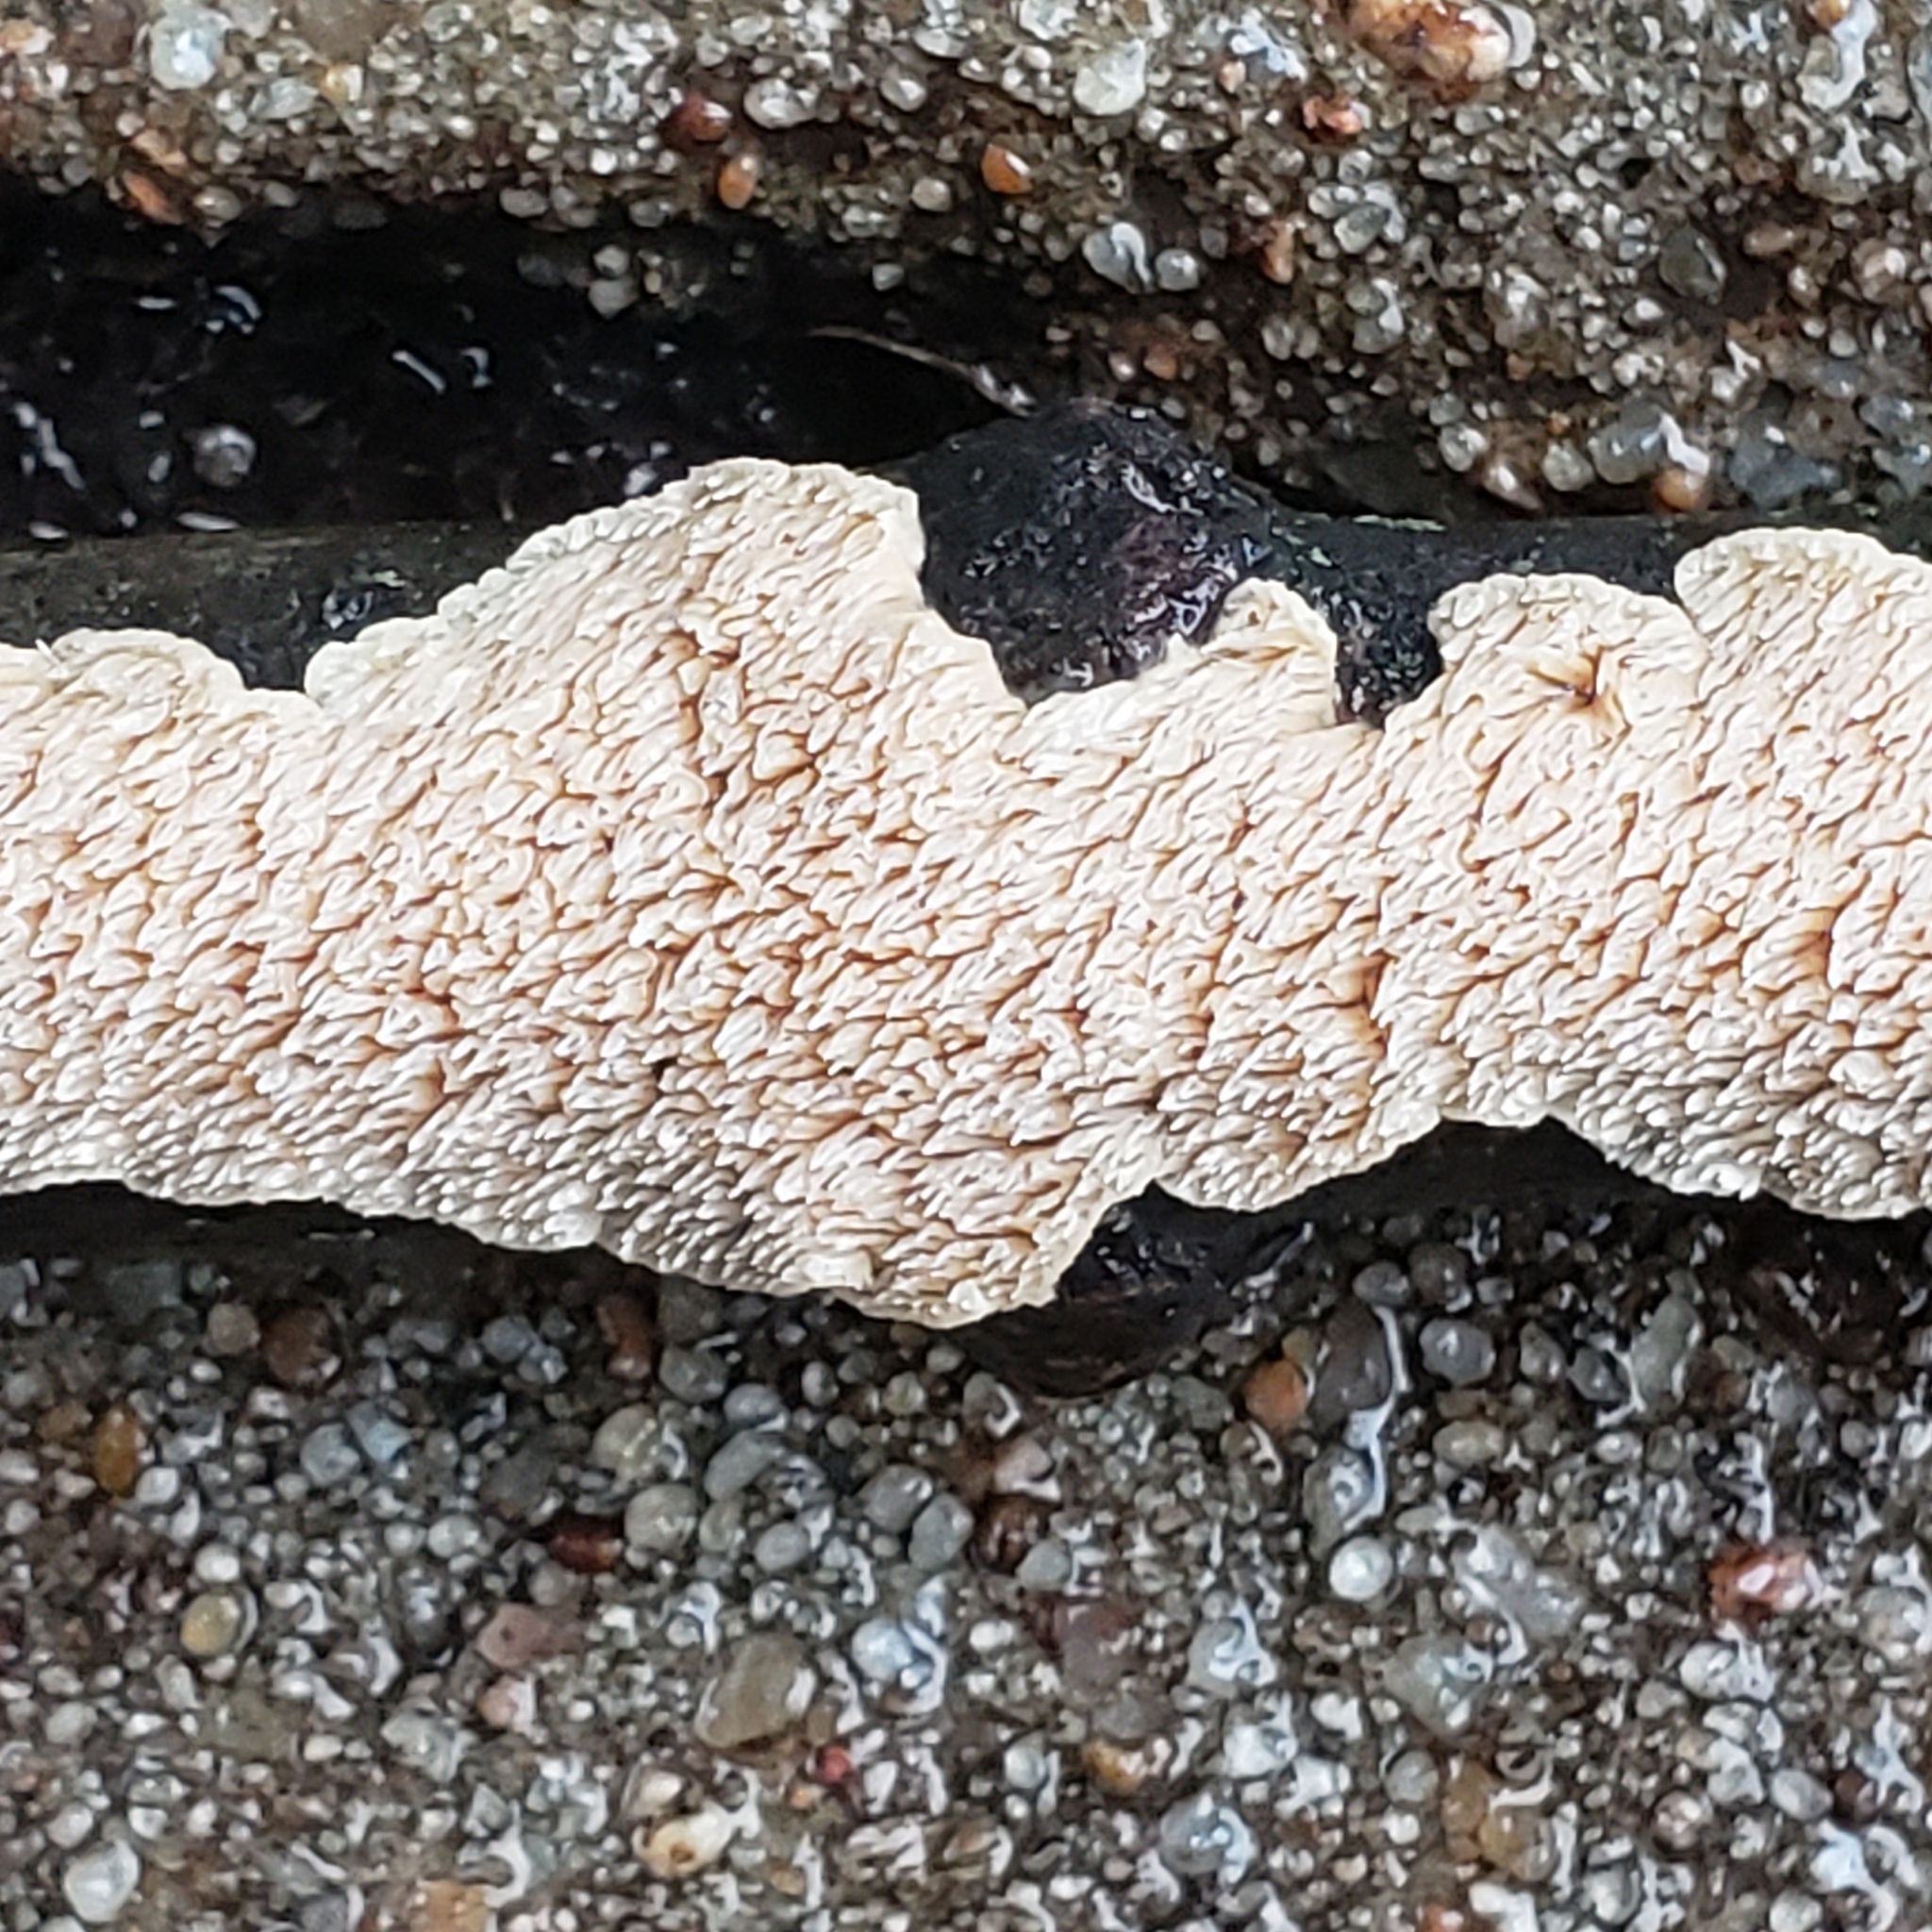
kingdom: Fungi
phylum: Basidiomycota
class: Agaricomycetes
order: Polyporales
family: Irpicaceae
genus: Irpex
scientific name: Irpex lacteus
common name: Milk-white toothed polypore
